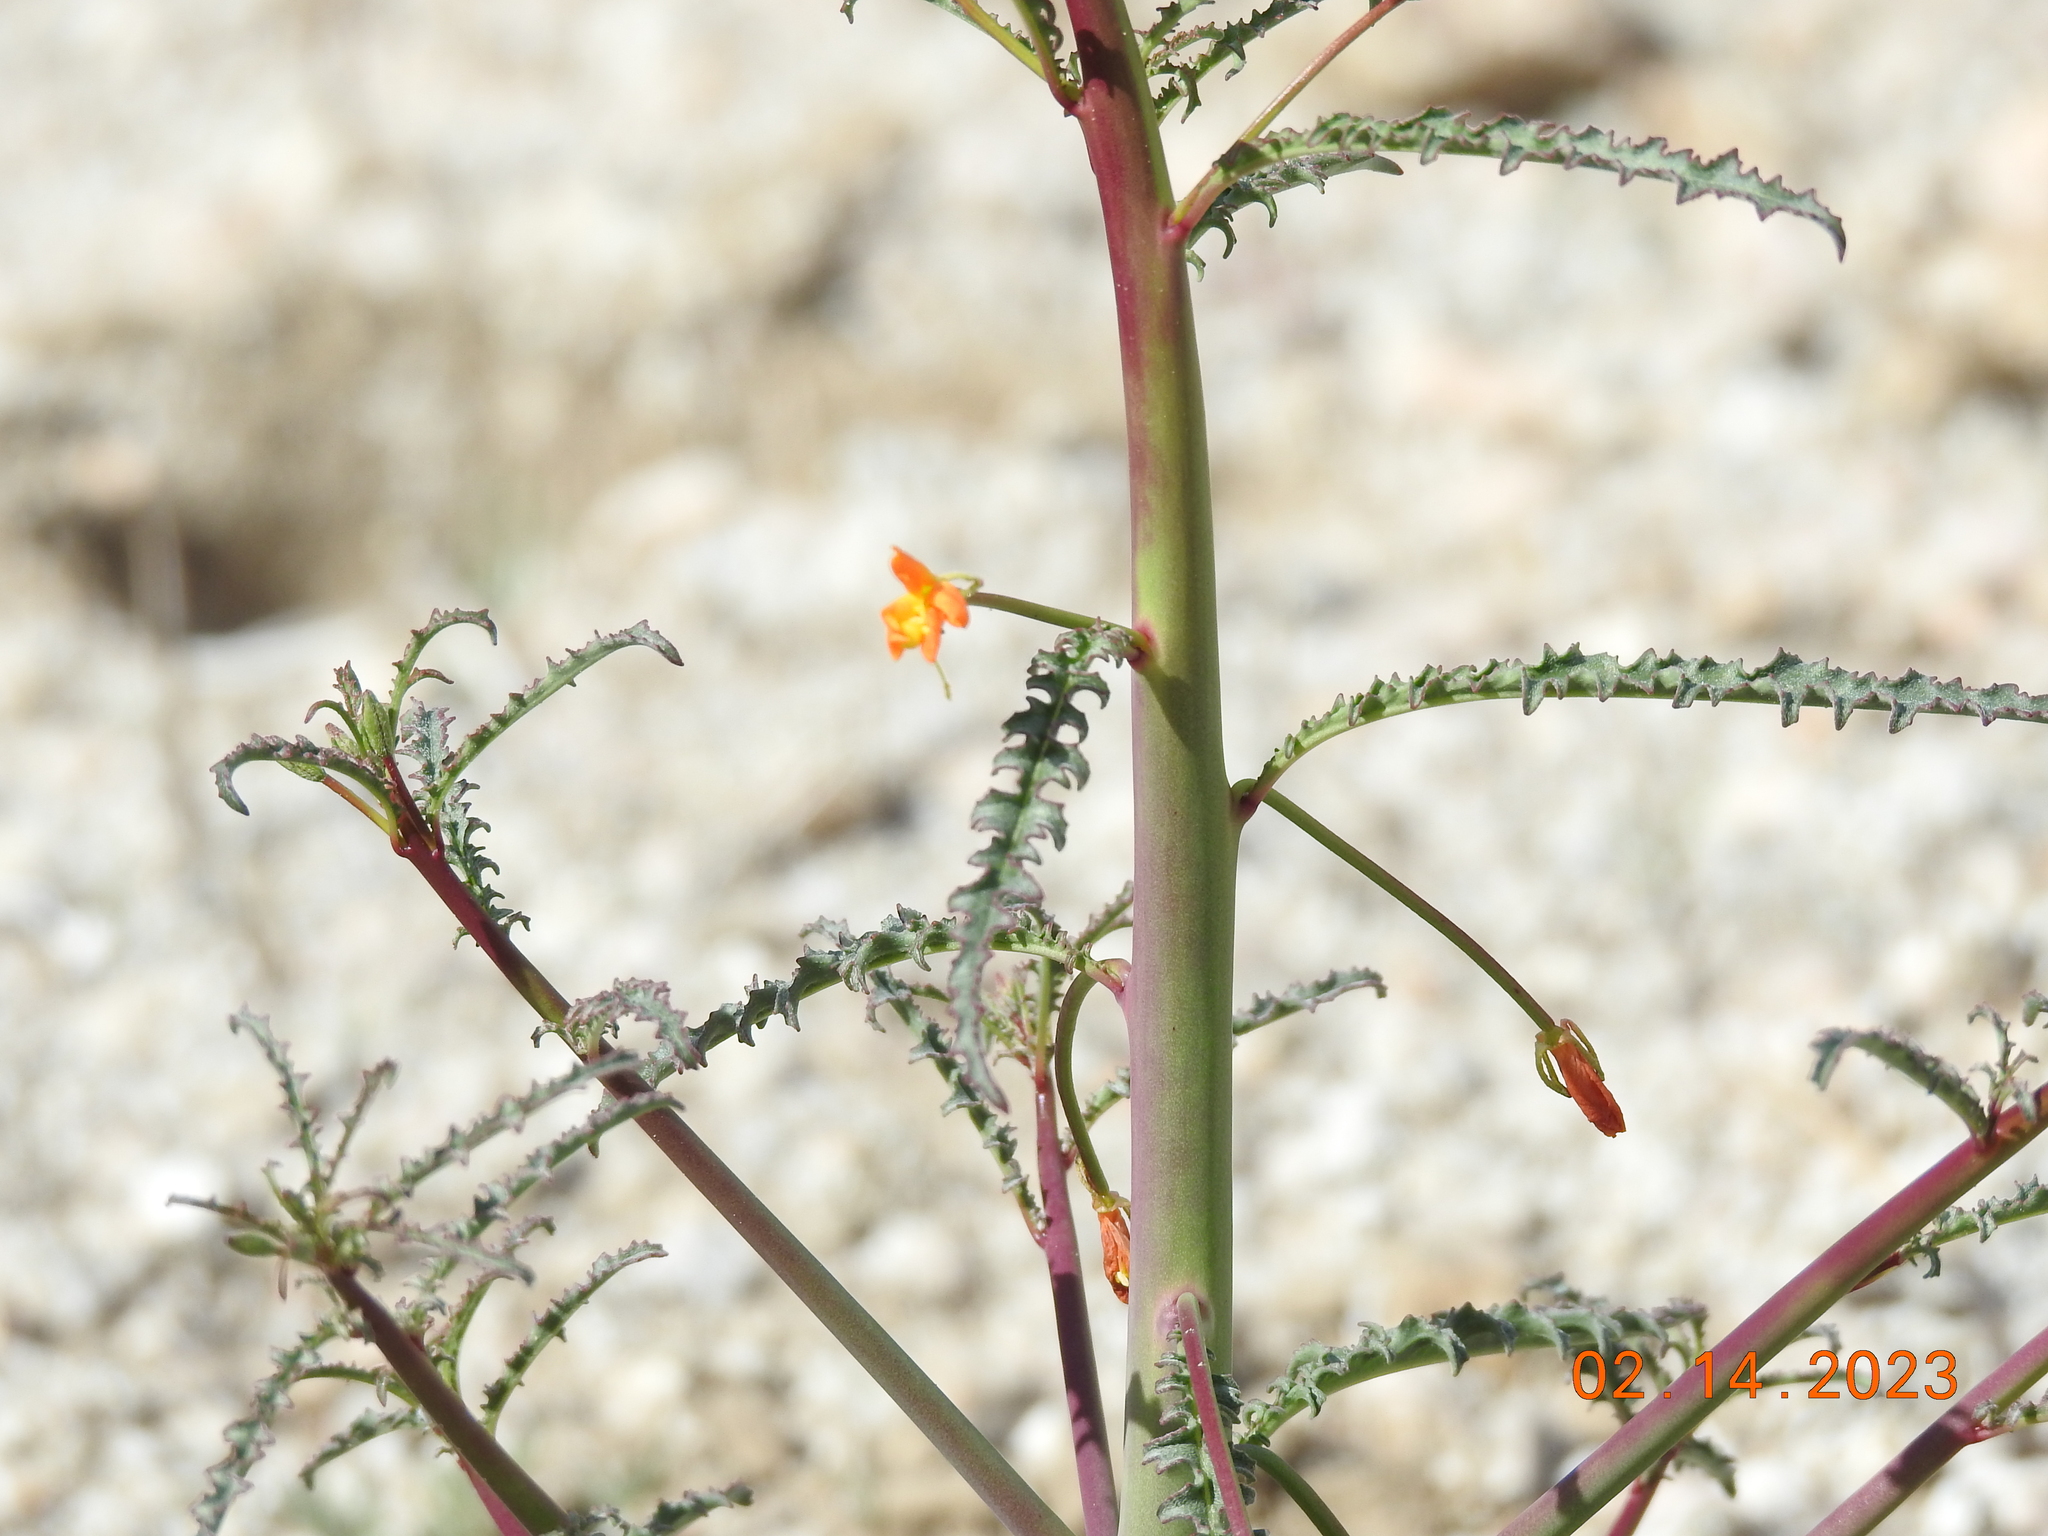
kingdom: Plantae
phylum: Tracheophyta
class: Magnoliopsida
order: Myrtales
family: Onagraceae
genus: Eulobus
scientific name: Eulobus californicus
